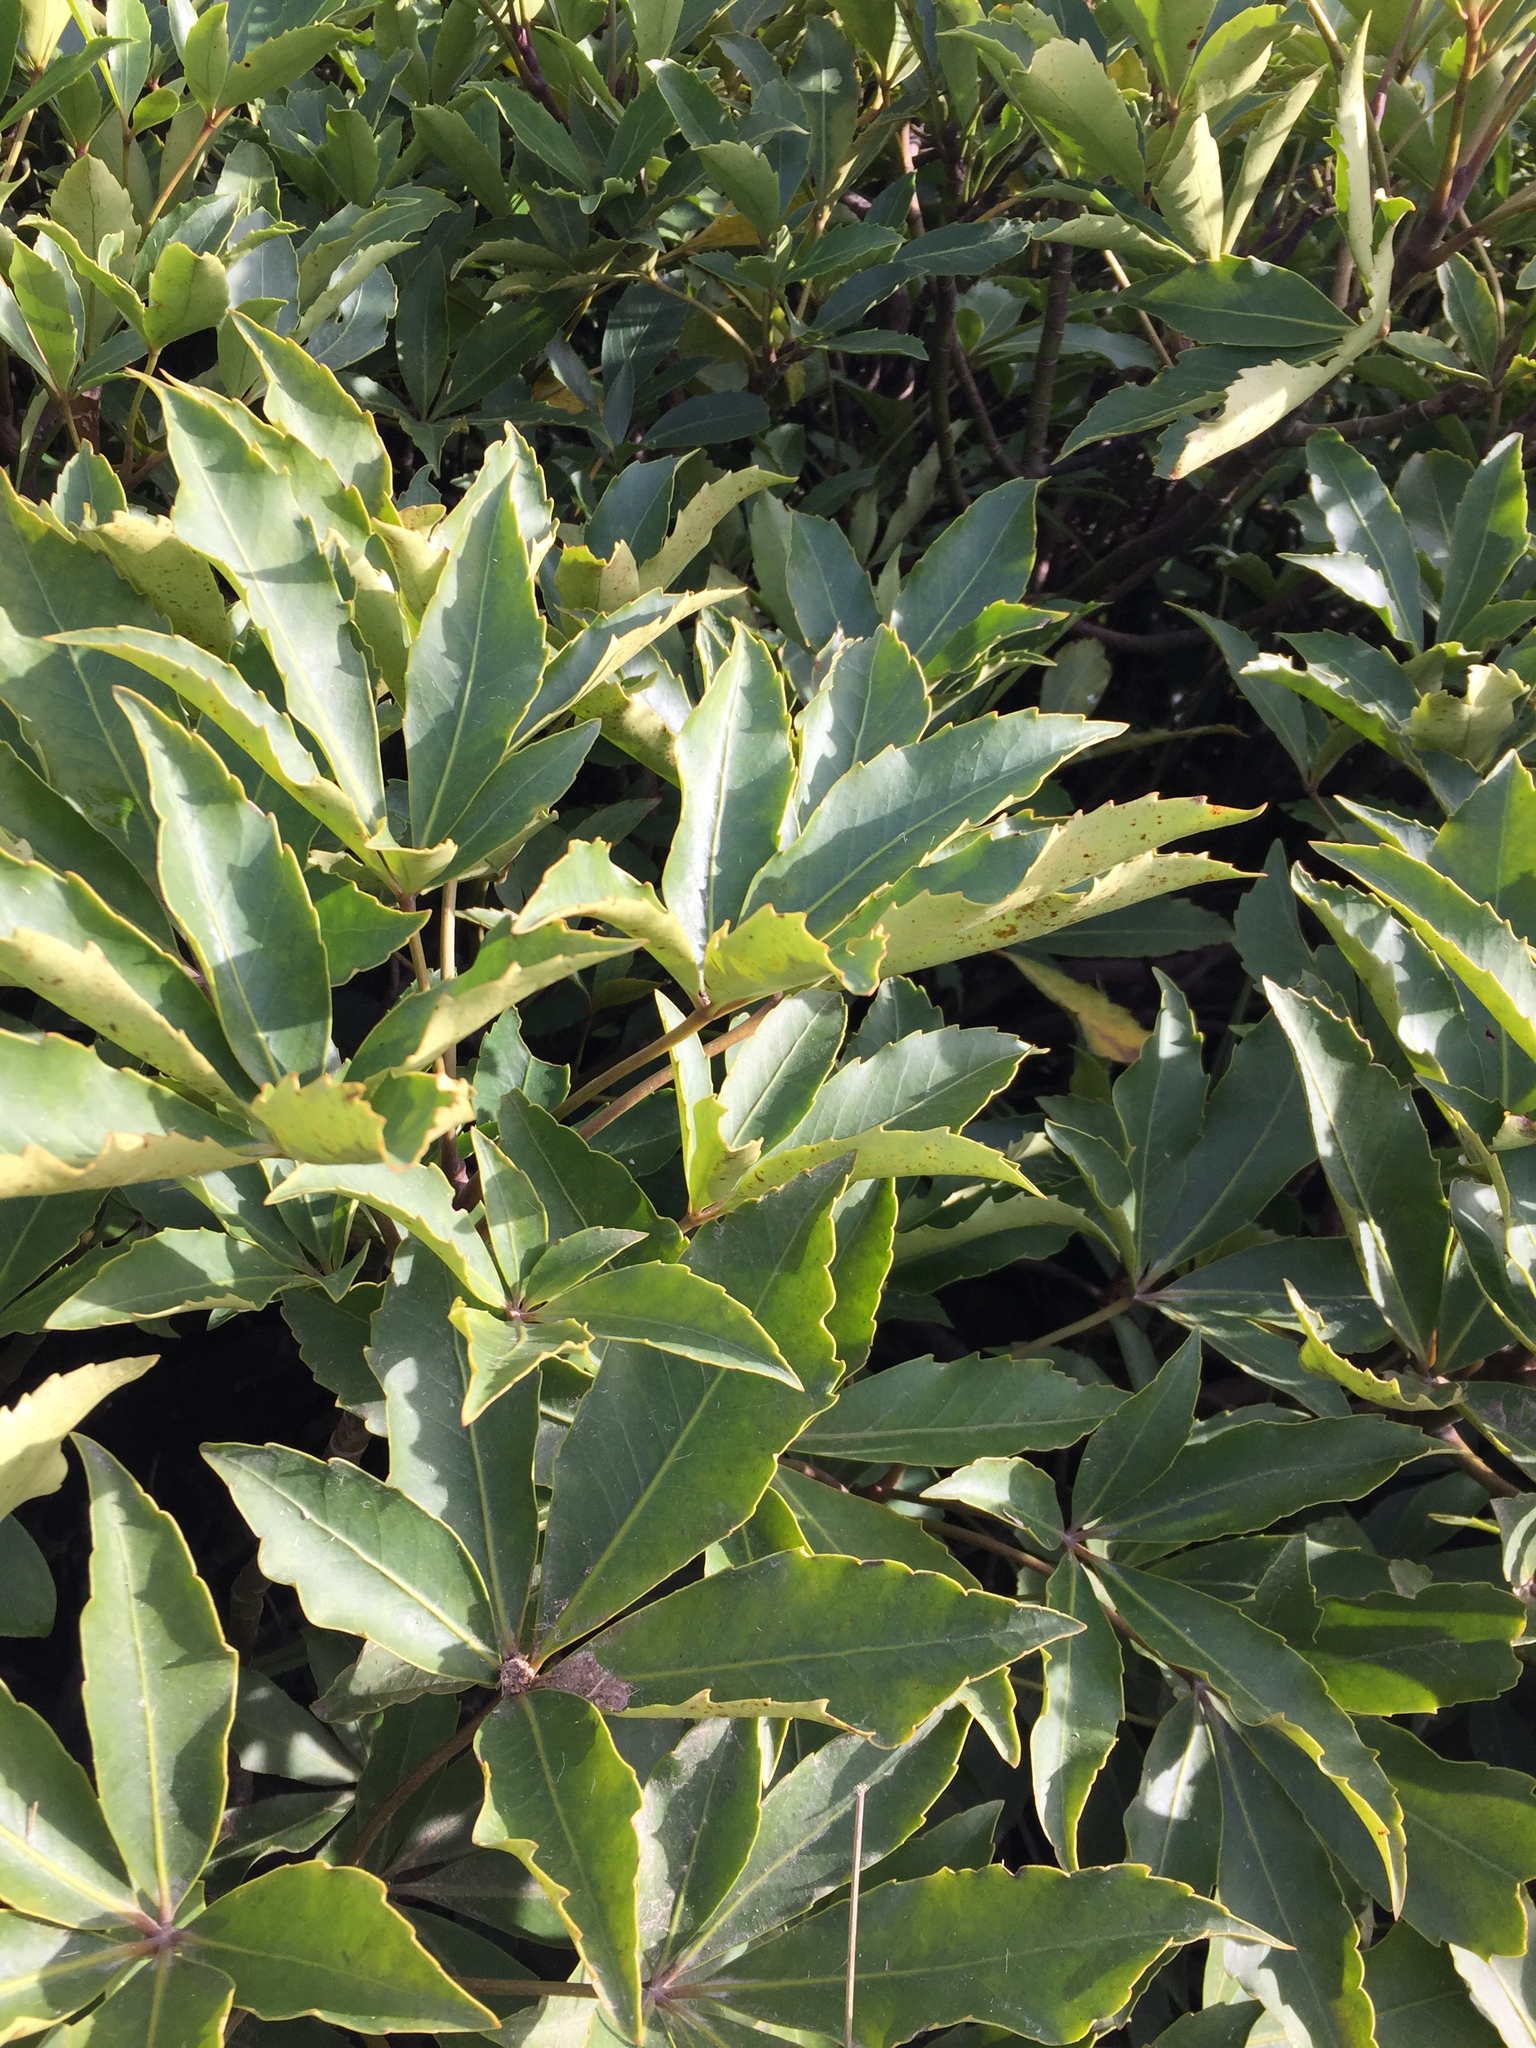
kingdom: Plantae
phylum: Tracheophyta
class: Magnoliopsida
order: Apiales
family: Araliaceae
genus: Neopanax
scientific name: Neopanax colensoi
